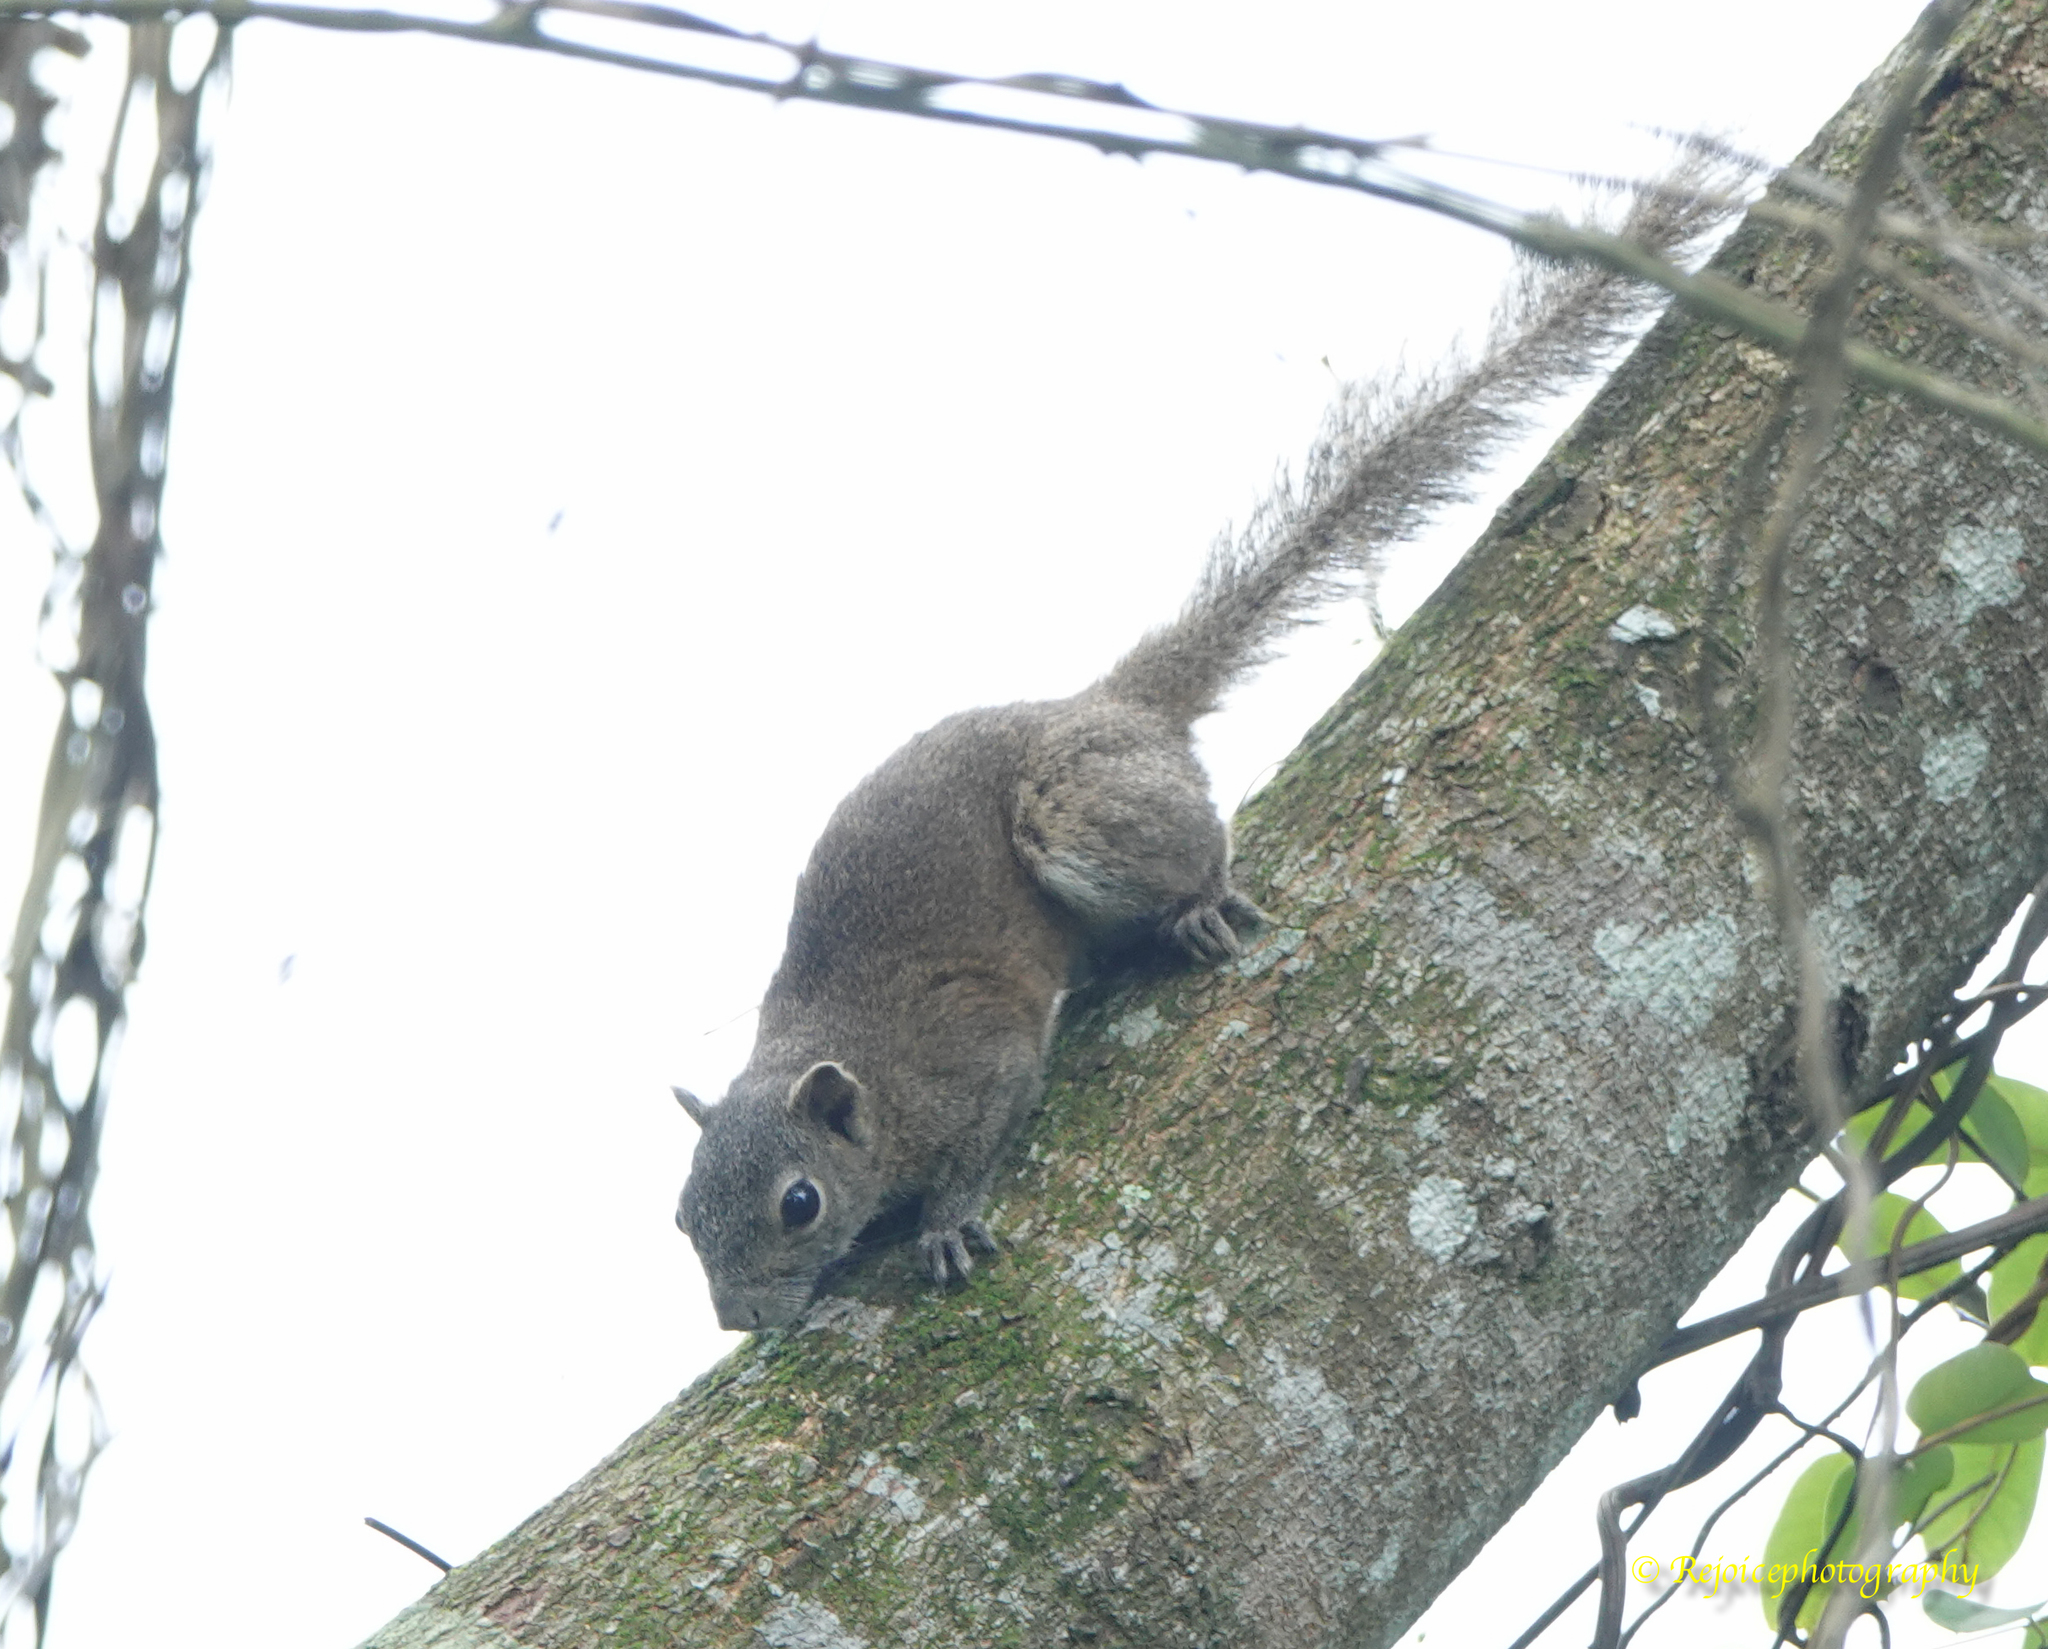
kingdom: Animalia
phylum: Chordata
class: Mammalia
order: Rodentia
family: Sciuridae
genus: Callosciurus
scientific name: Callosciurus pygerythrus
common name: Irrawaddy squirrel
